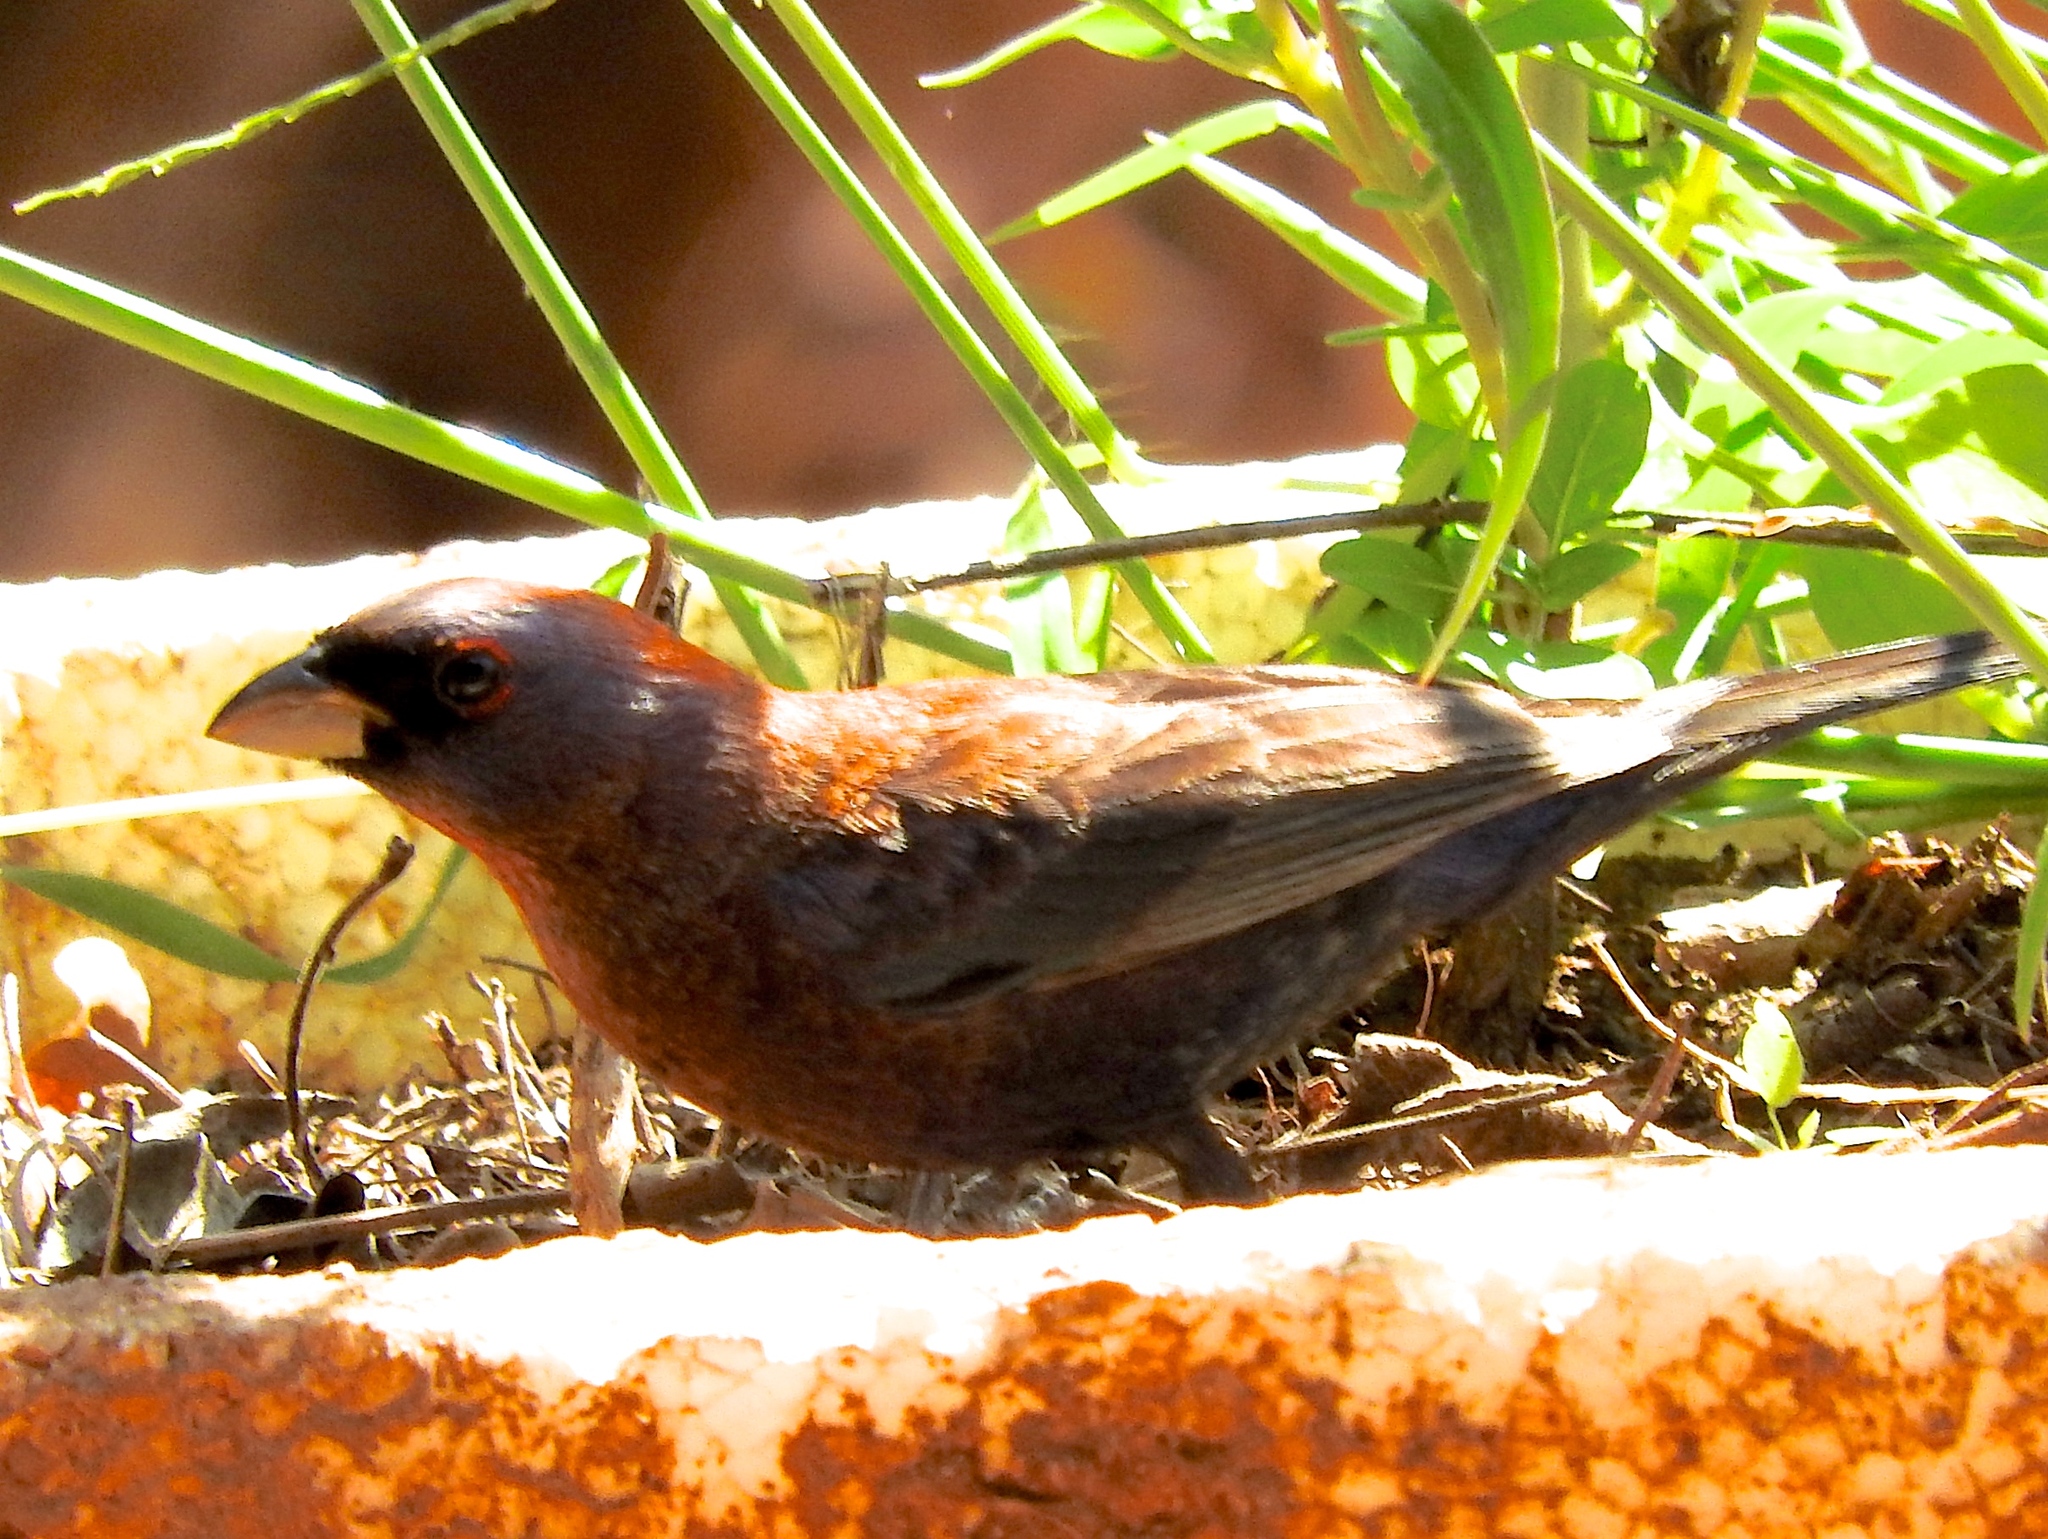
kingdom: Animalia
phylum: Chordata
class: Aves
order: Passeriformes
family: Cardinalidae
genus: Passerina
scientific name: Passerina versicolor
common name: Varied bunting
